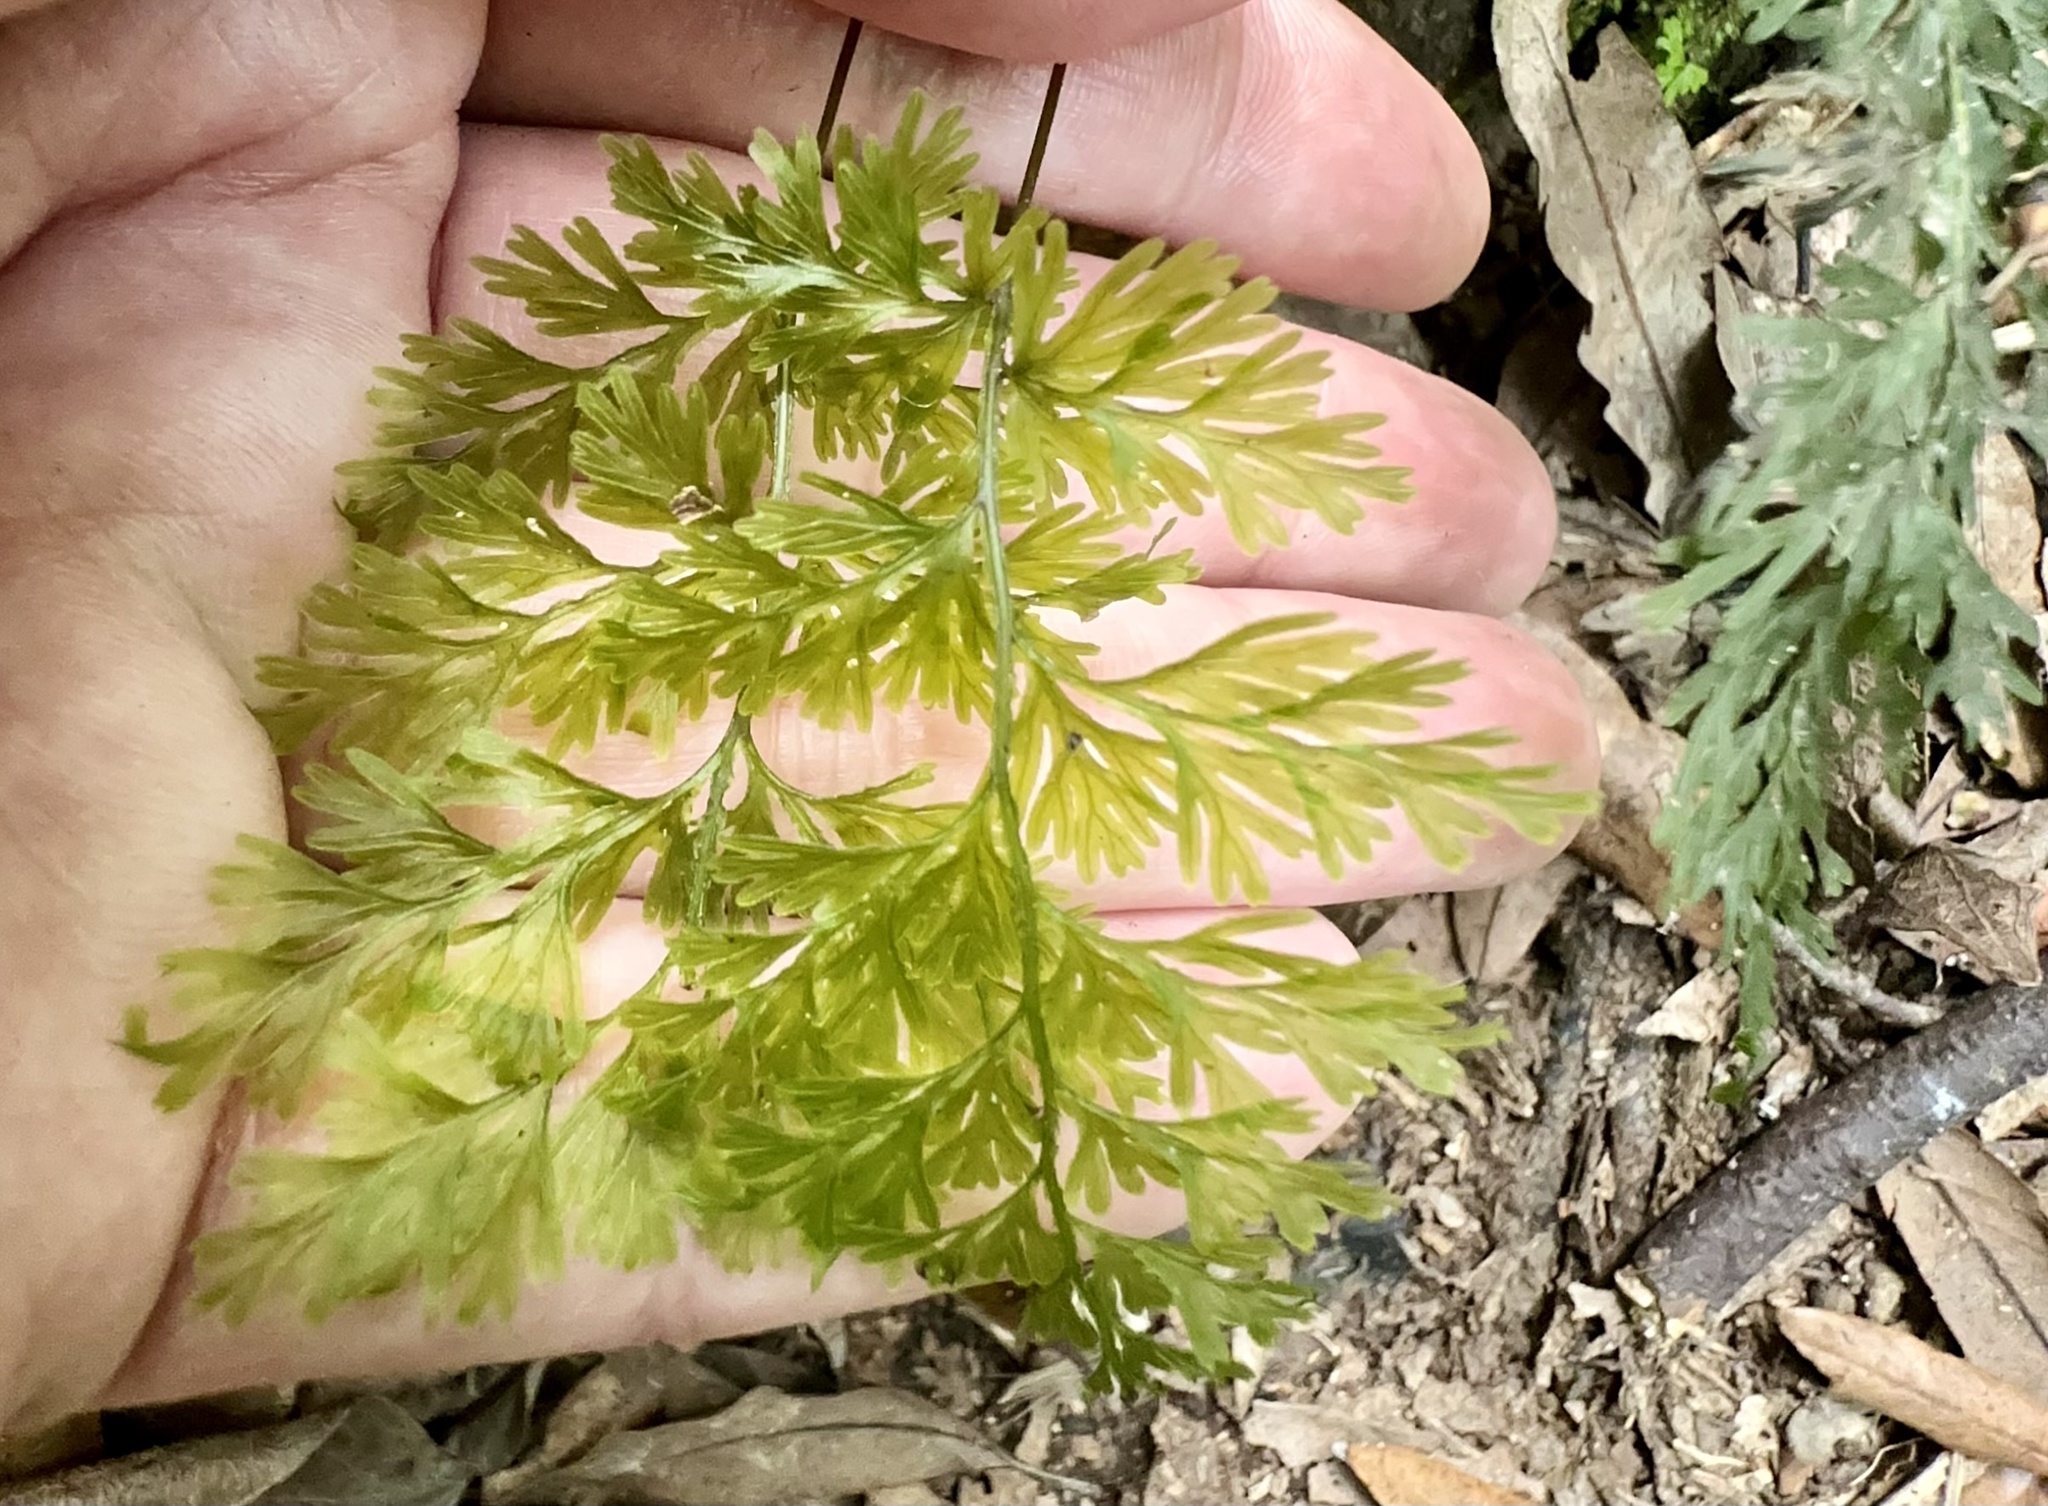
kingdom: Plantae
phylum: Tracheophyta
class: Polypodiopsida
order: Hymenophyllales
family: Hymenophyllaceae
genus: Hymenophyllum
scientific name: Hymenophyllum demissum
